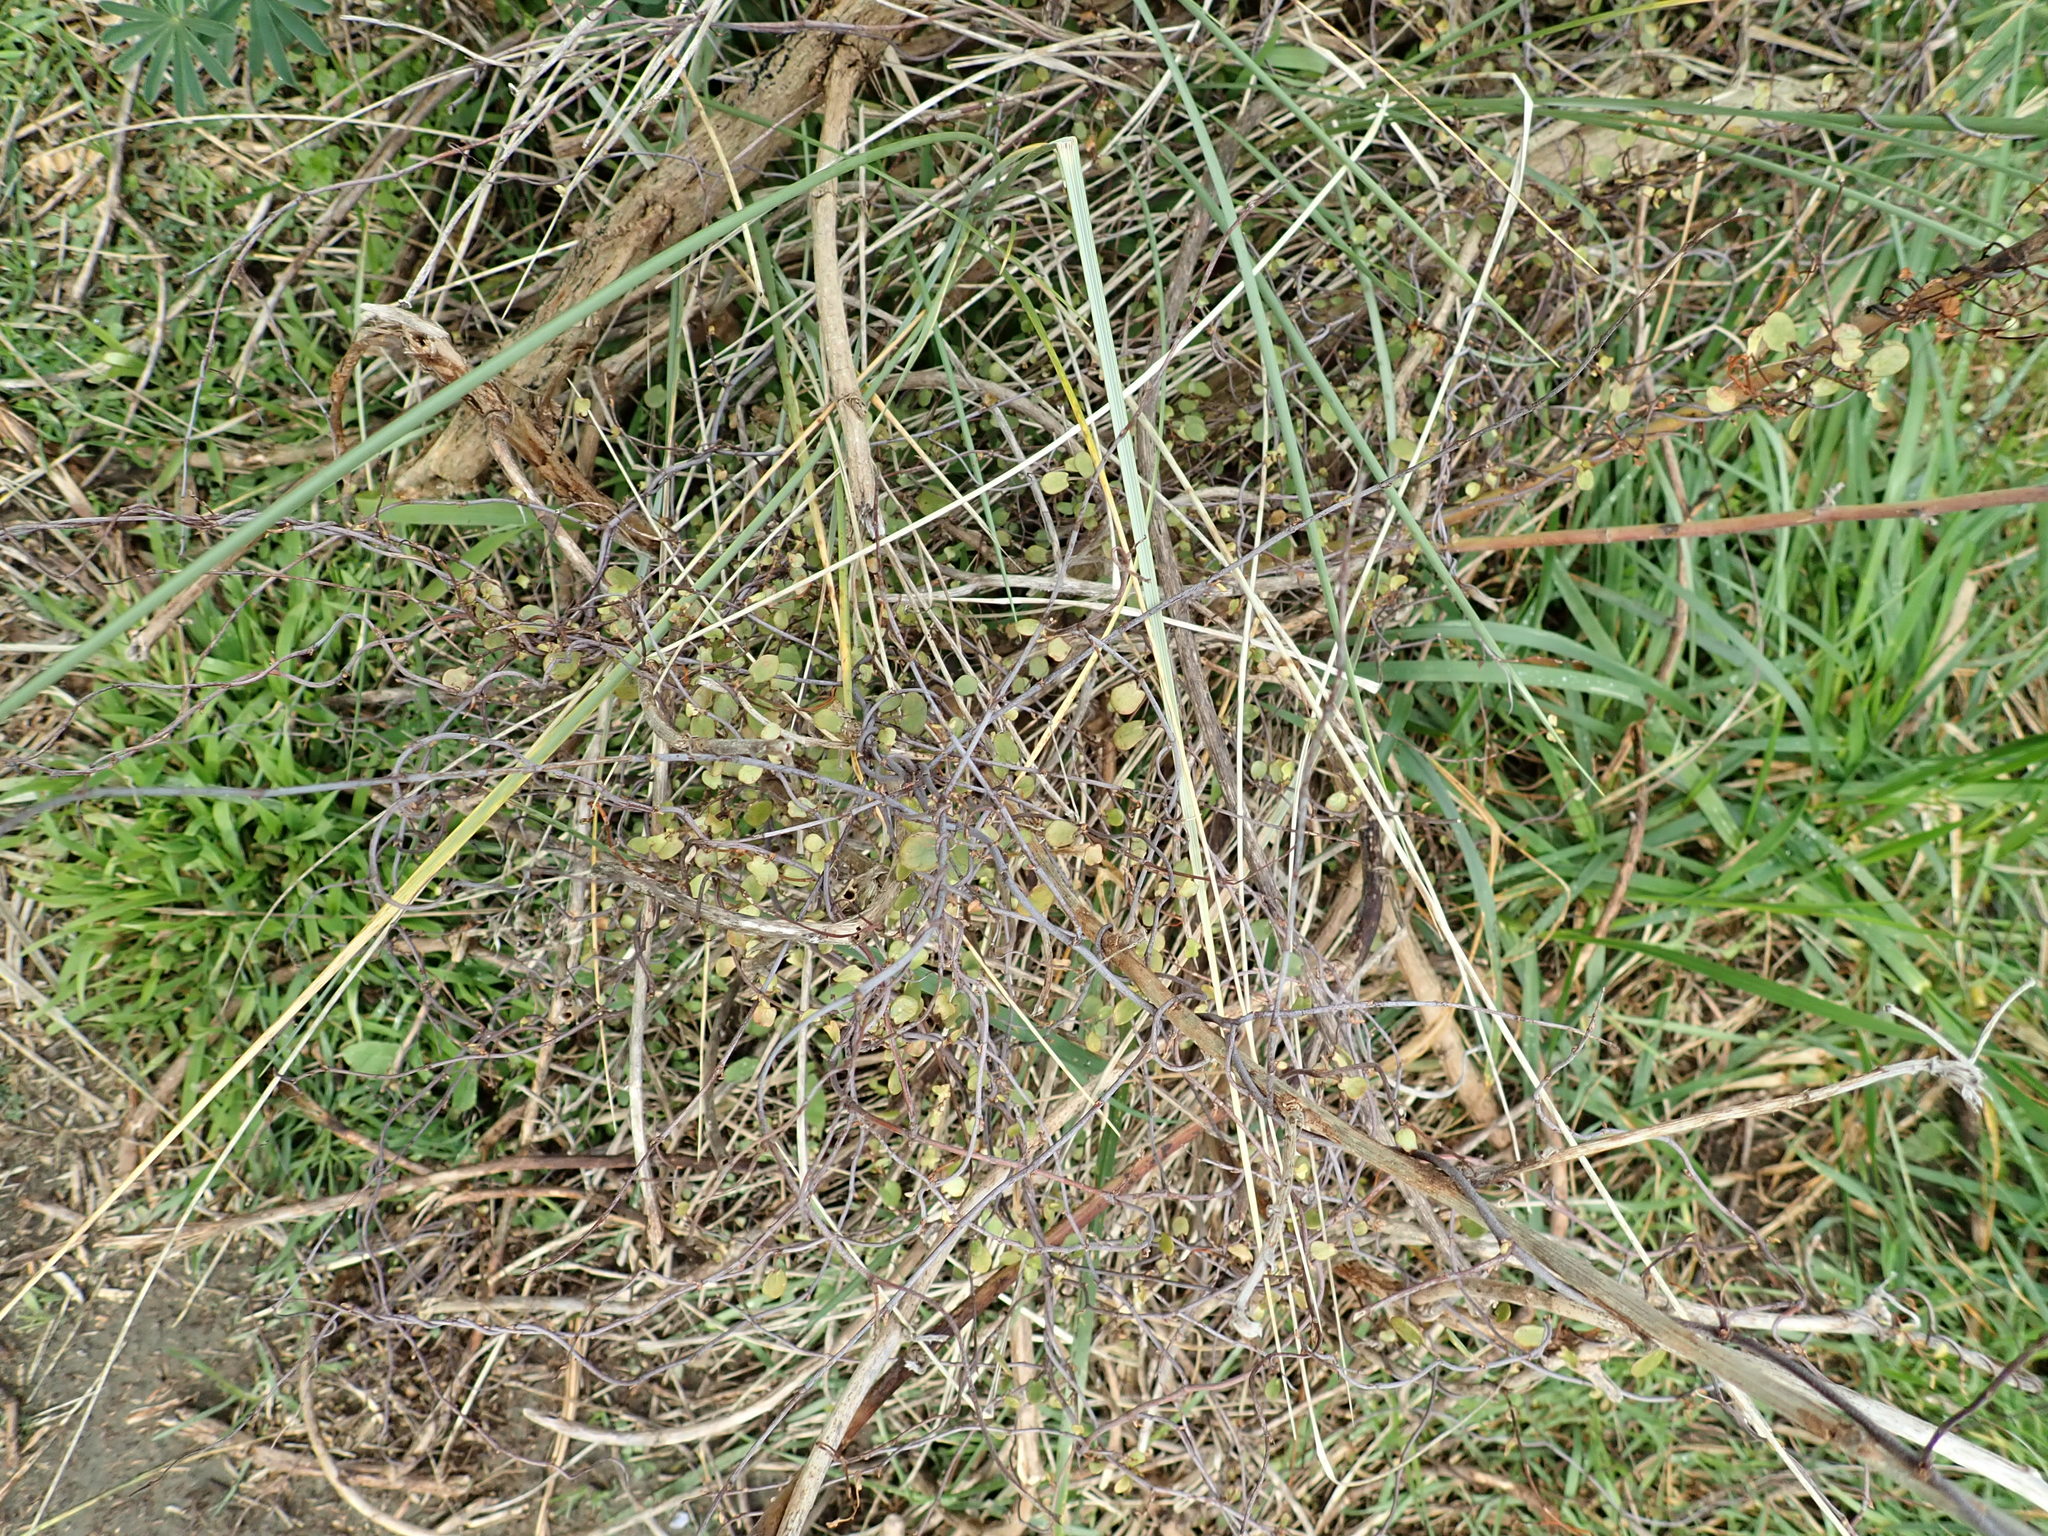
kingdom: Plantae
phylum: Tracheophyta
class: Magnoliopsida
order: Caryophyllales
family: Polygonaceae
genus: Muehlenbeckia
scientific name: Muehlenbeckia complexa
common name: Wireplant
